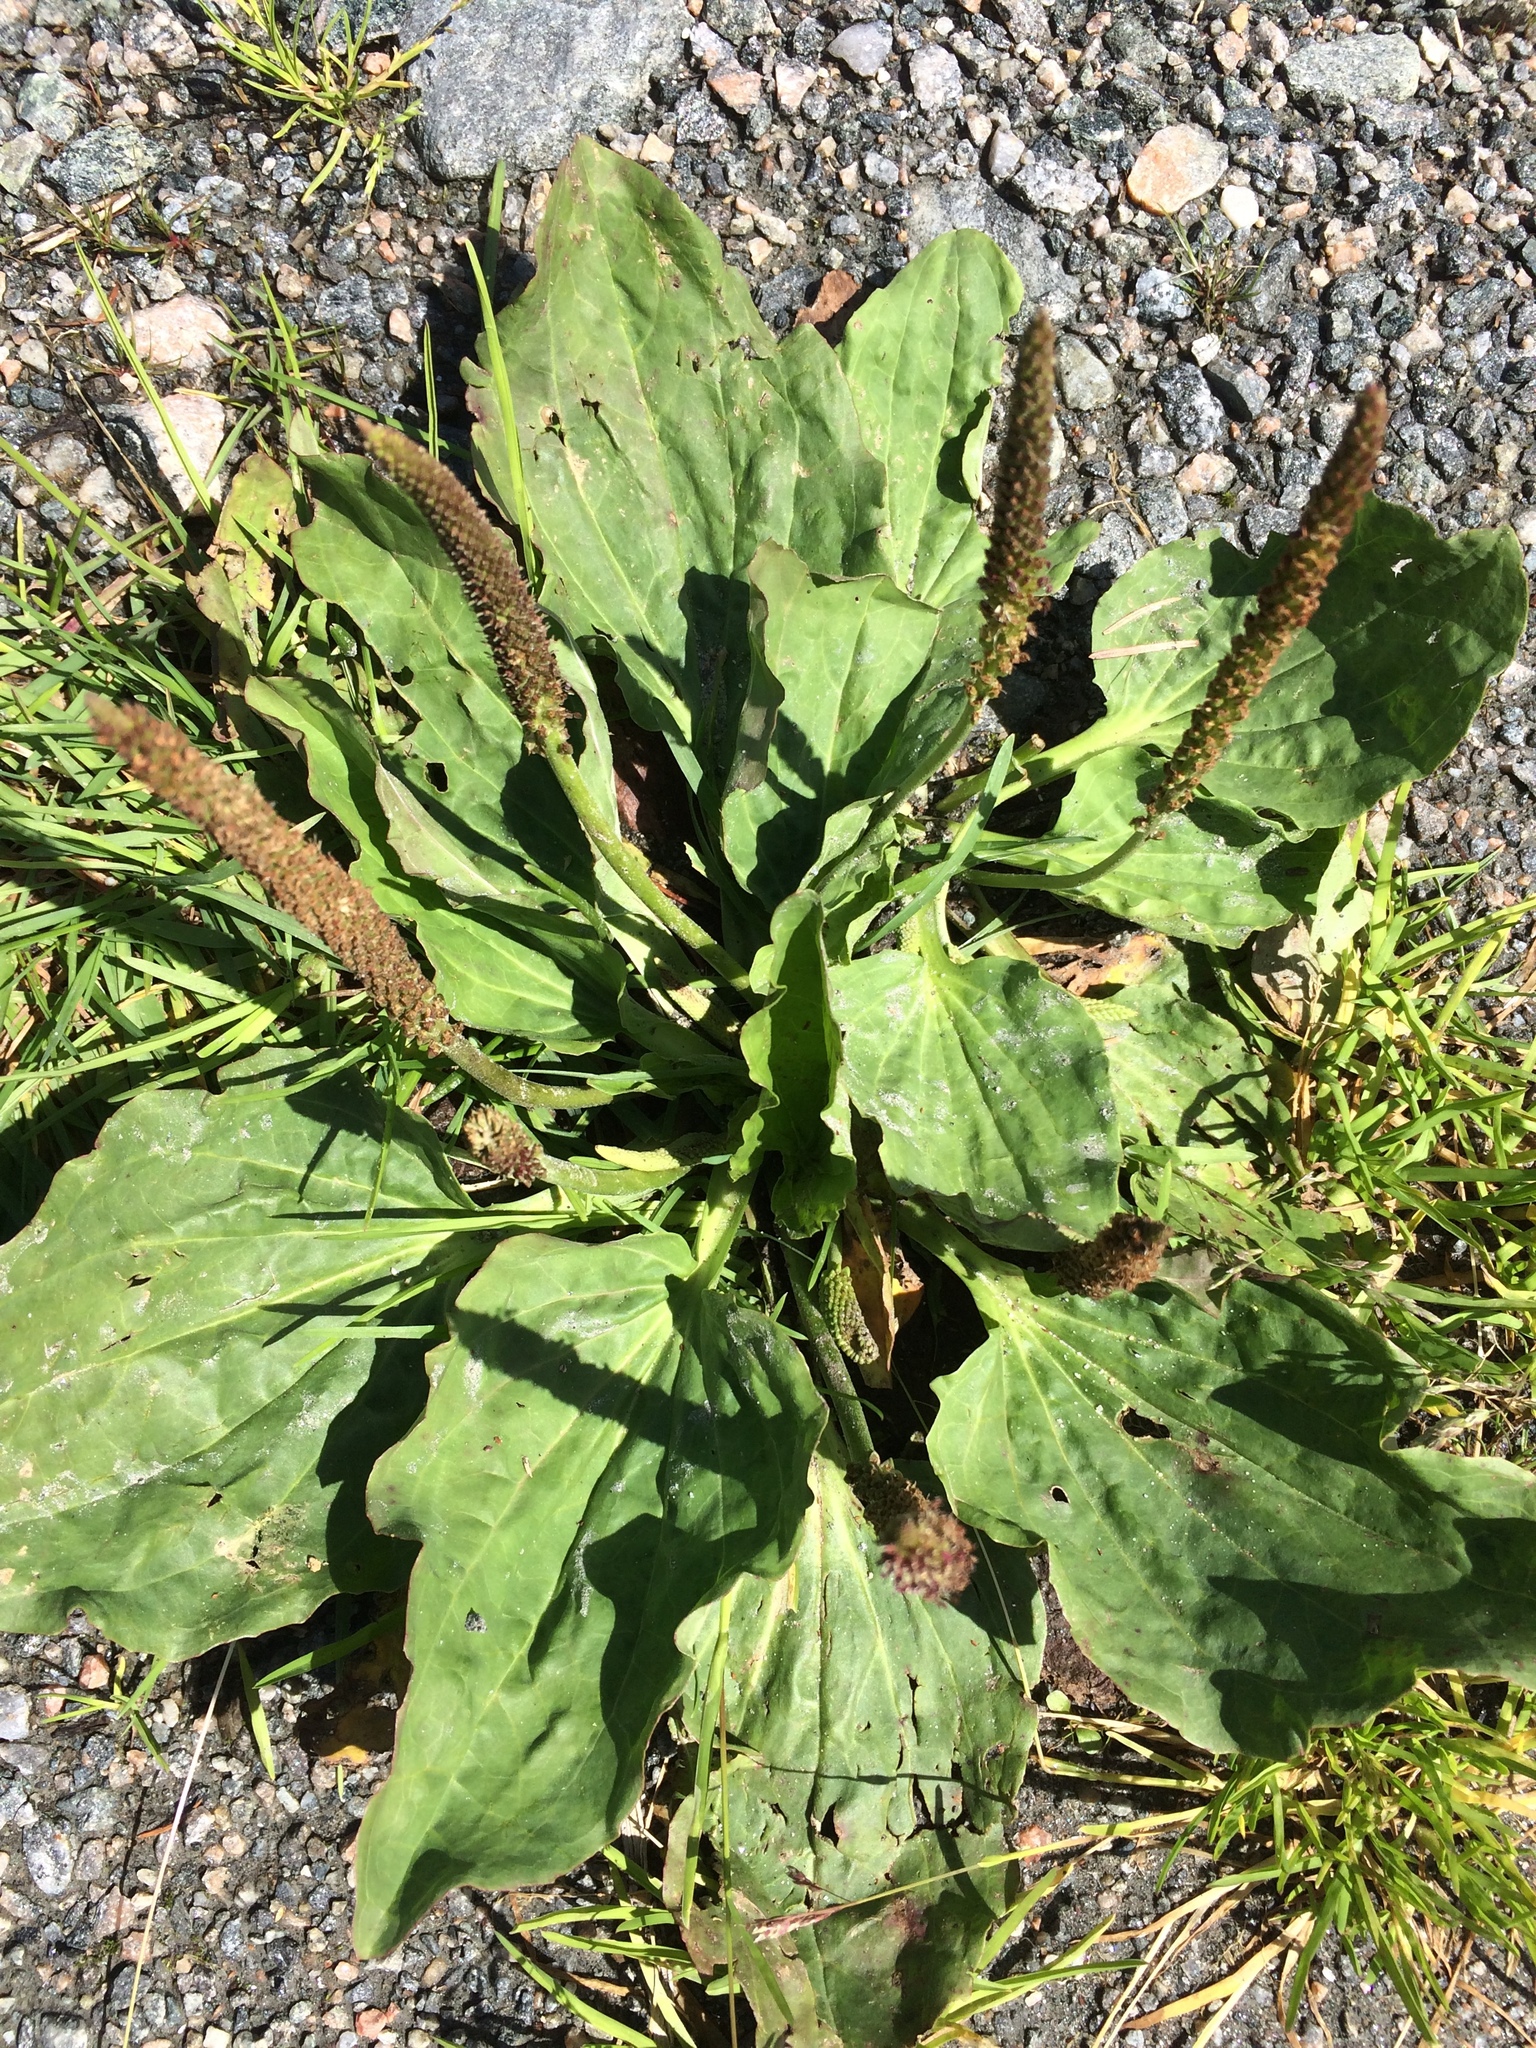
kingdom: Plantae
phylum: Tracheophyta
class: Magnoliopsida
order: Lamiales
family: Plantaginaceae
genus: Plantago
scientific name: Plantago major
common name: Common plantain
